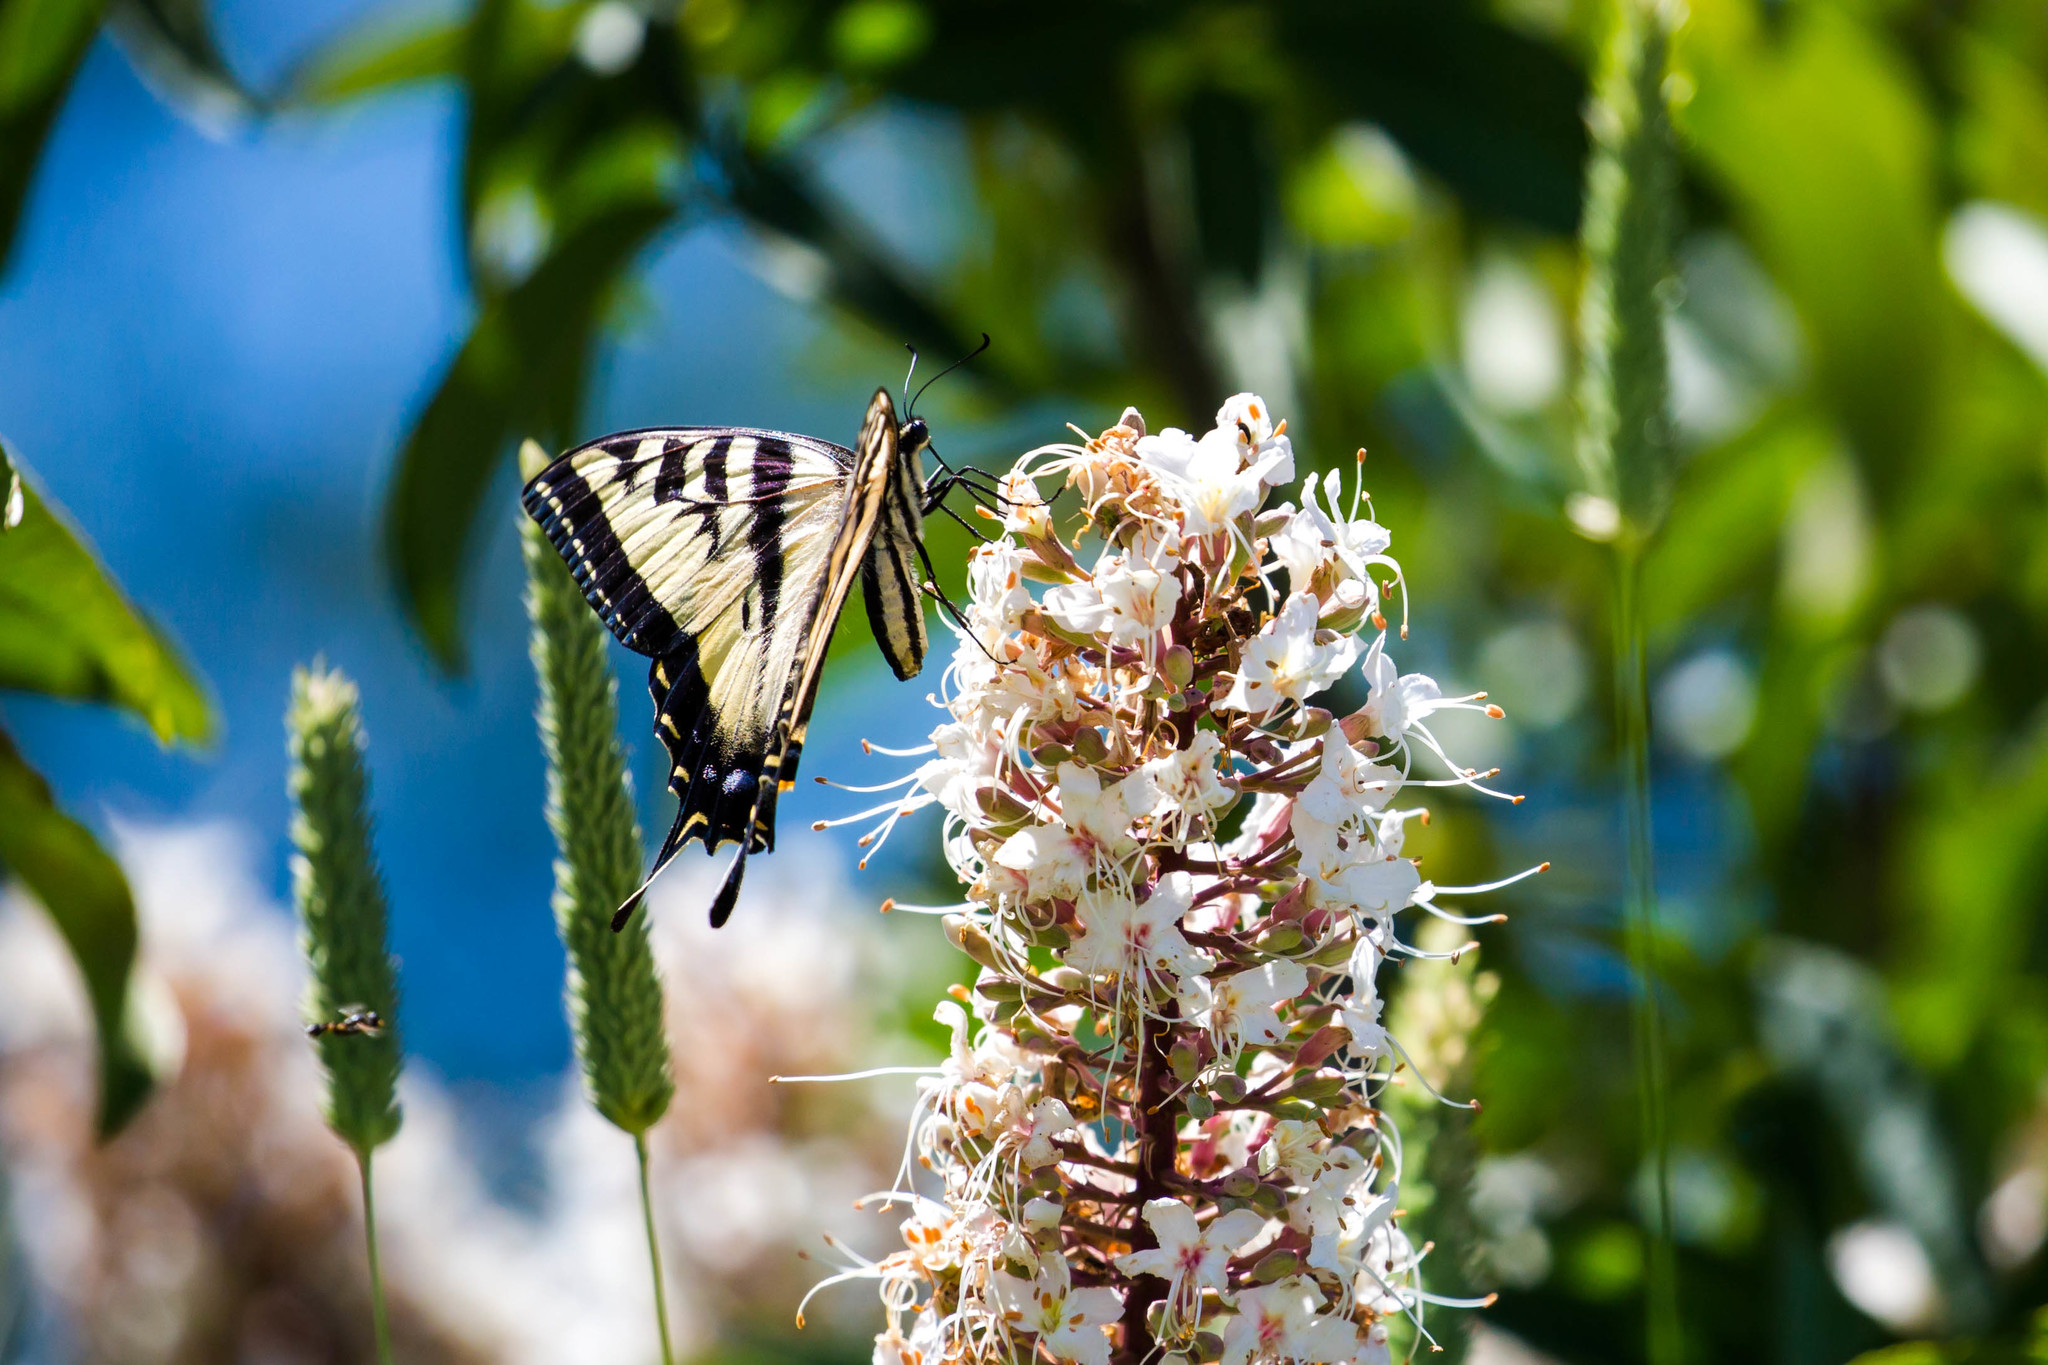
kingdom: Animalia
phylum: Arthropoda
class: Insecta
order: Lepidoptera
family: Papilionidae
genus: Papilio
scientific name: Papilio eurymedon
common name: Pale tiger swallowtail
